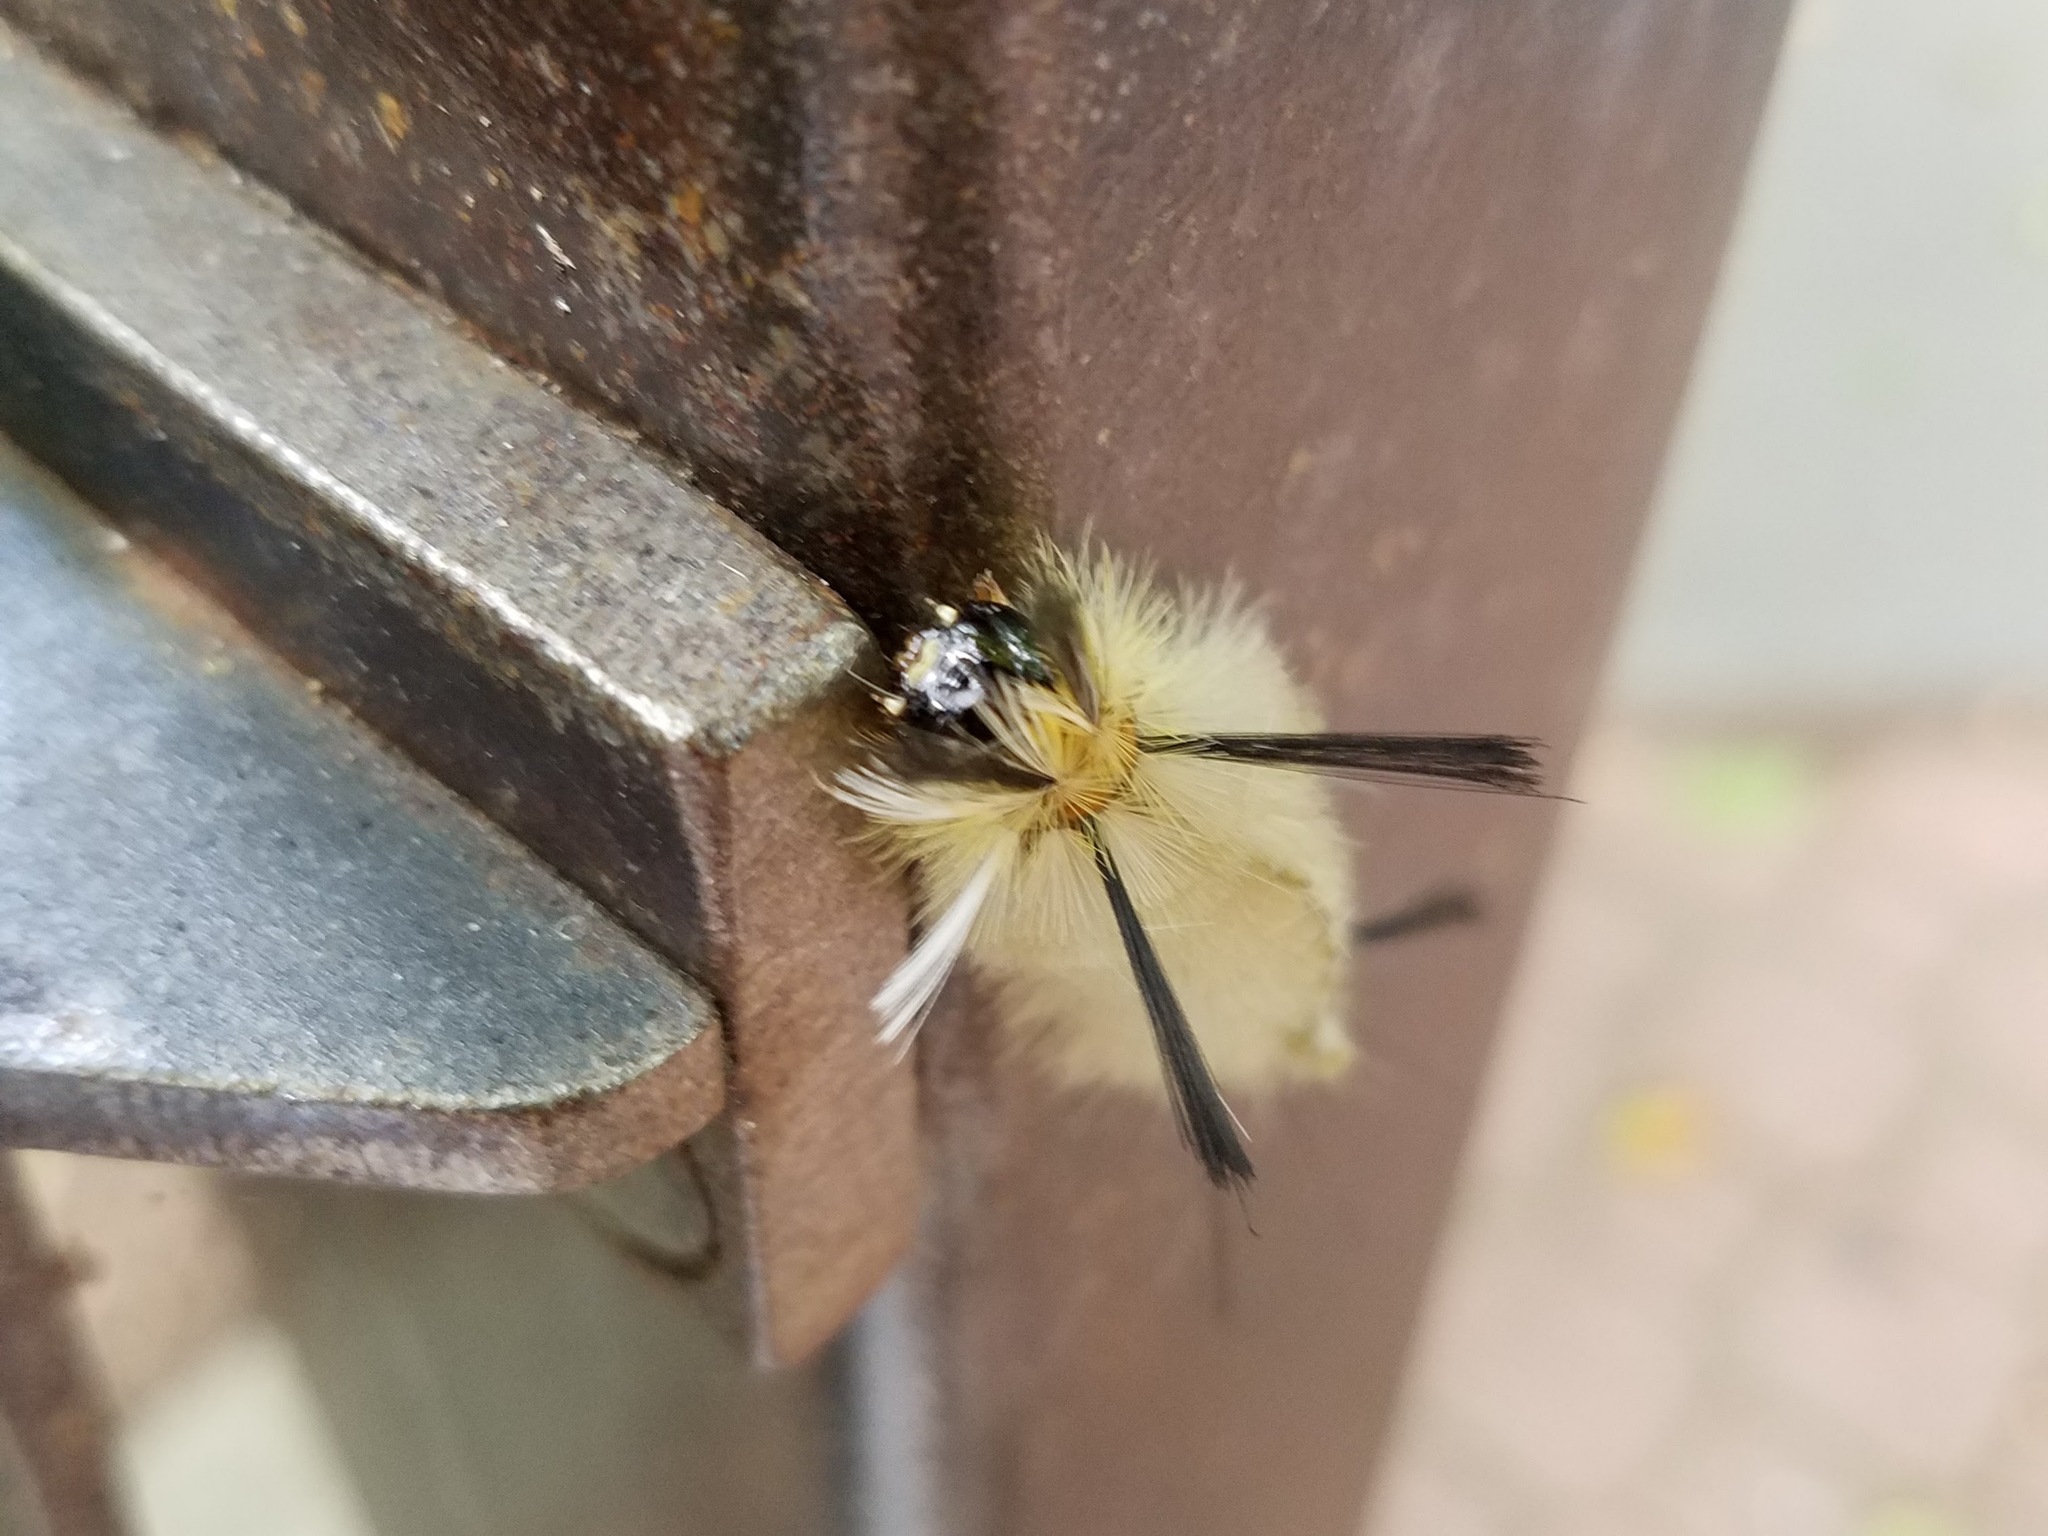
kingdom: Animalia
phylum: Arthropoda
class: Insecta
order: Lepidoptera
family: Erebidae
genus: Halysidota
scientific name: Halysidota tessellaris
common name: Banded tussock moth
